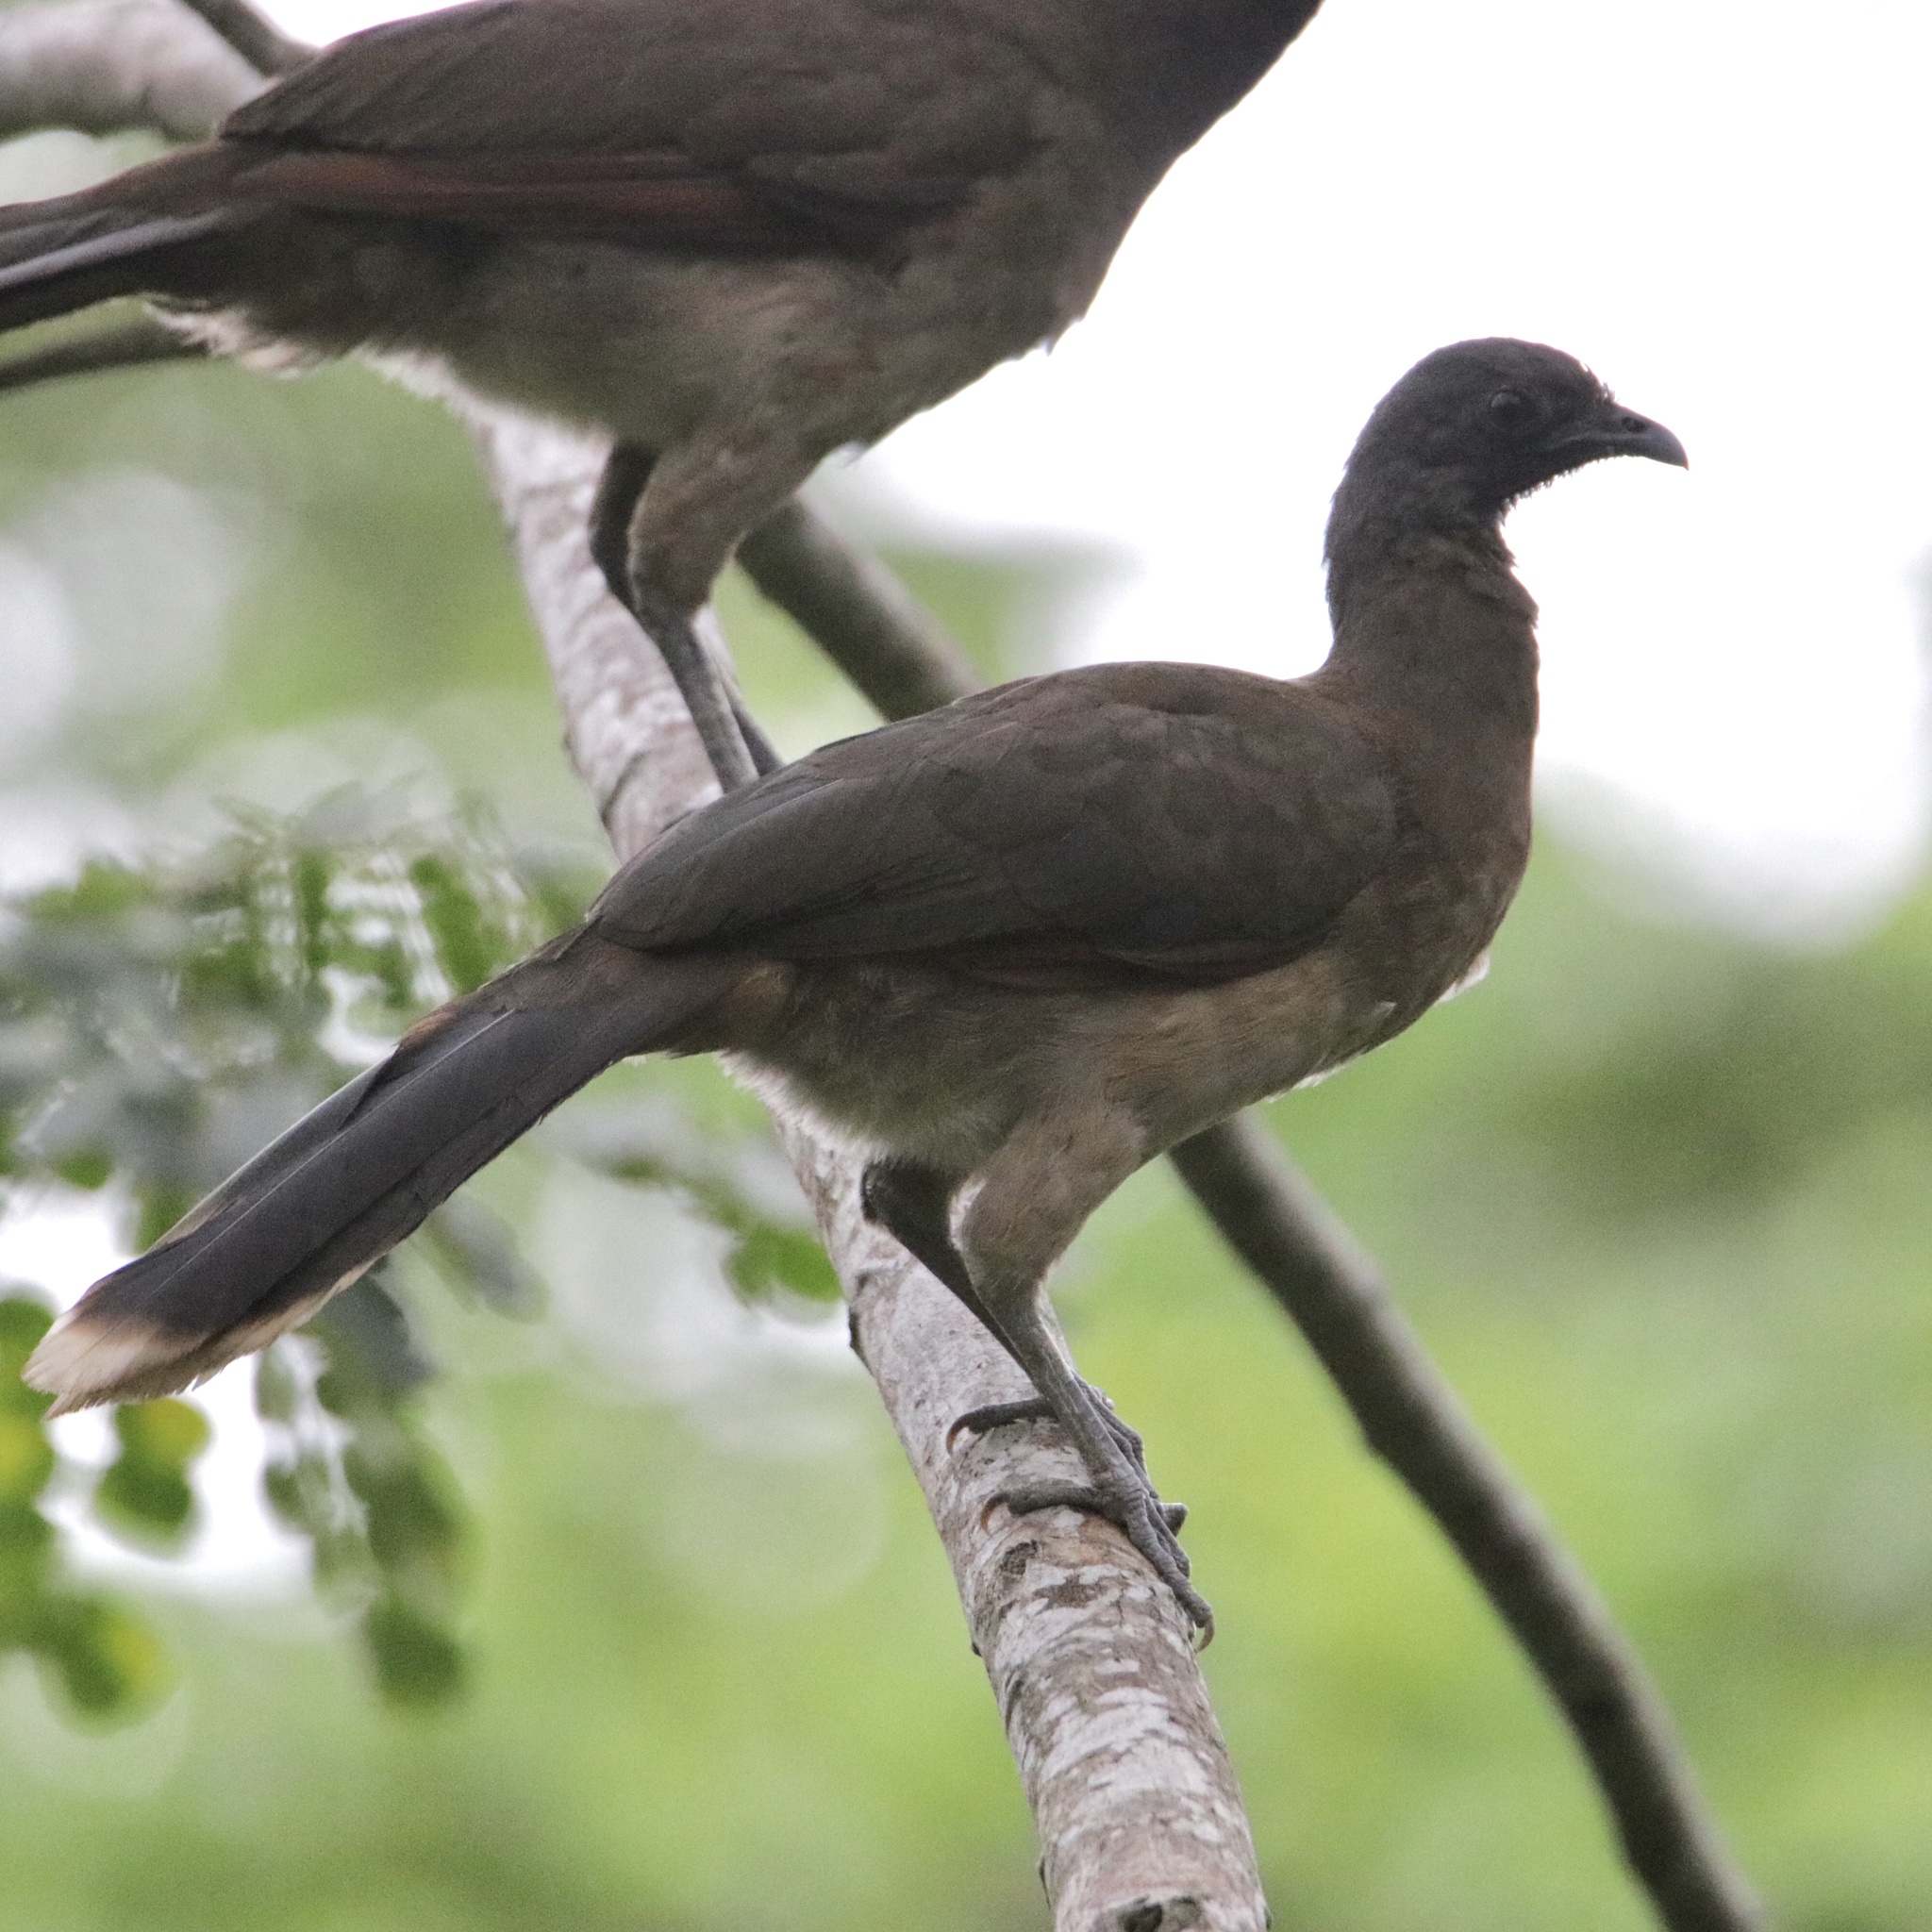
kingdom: Animalia
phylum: Chordata
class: Aves
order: Galliformes
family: Cracidae
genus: Ortalis
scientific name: Ortalis cinereiceps
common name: Grey-headed chachalaca
